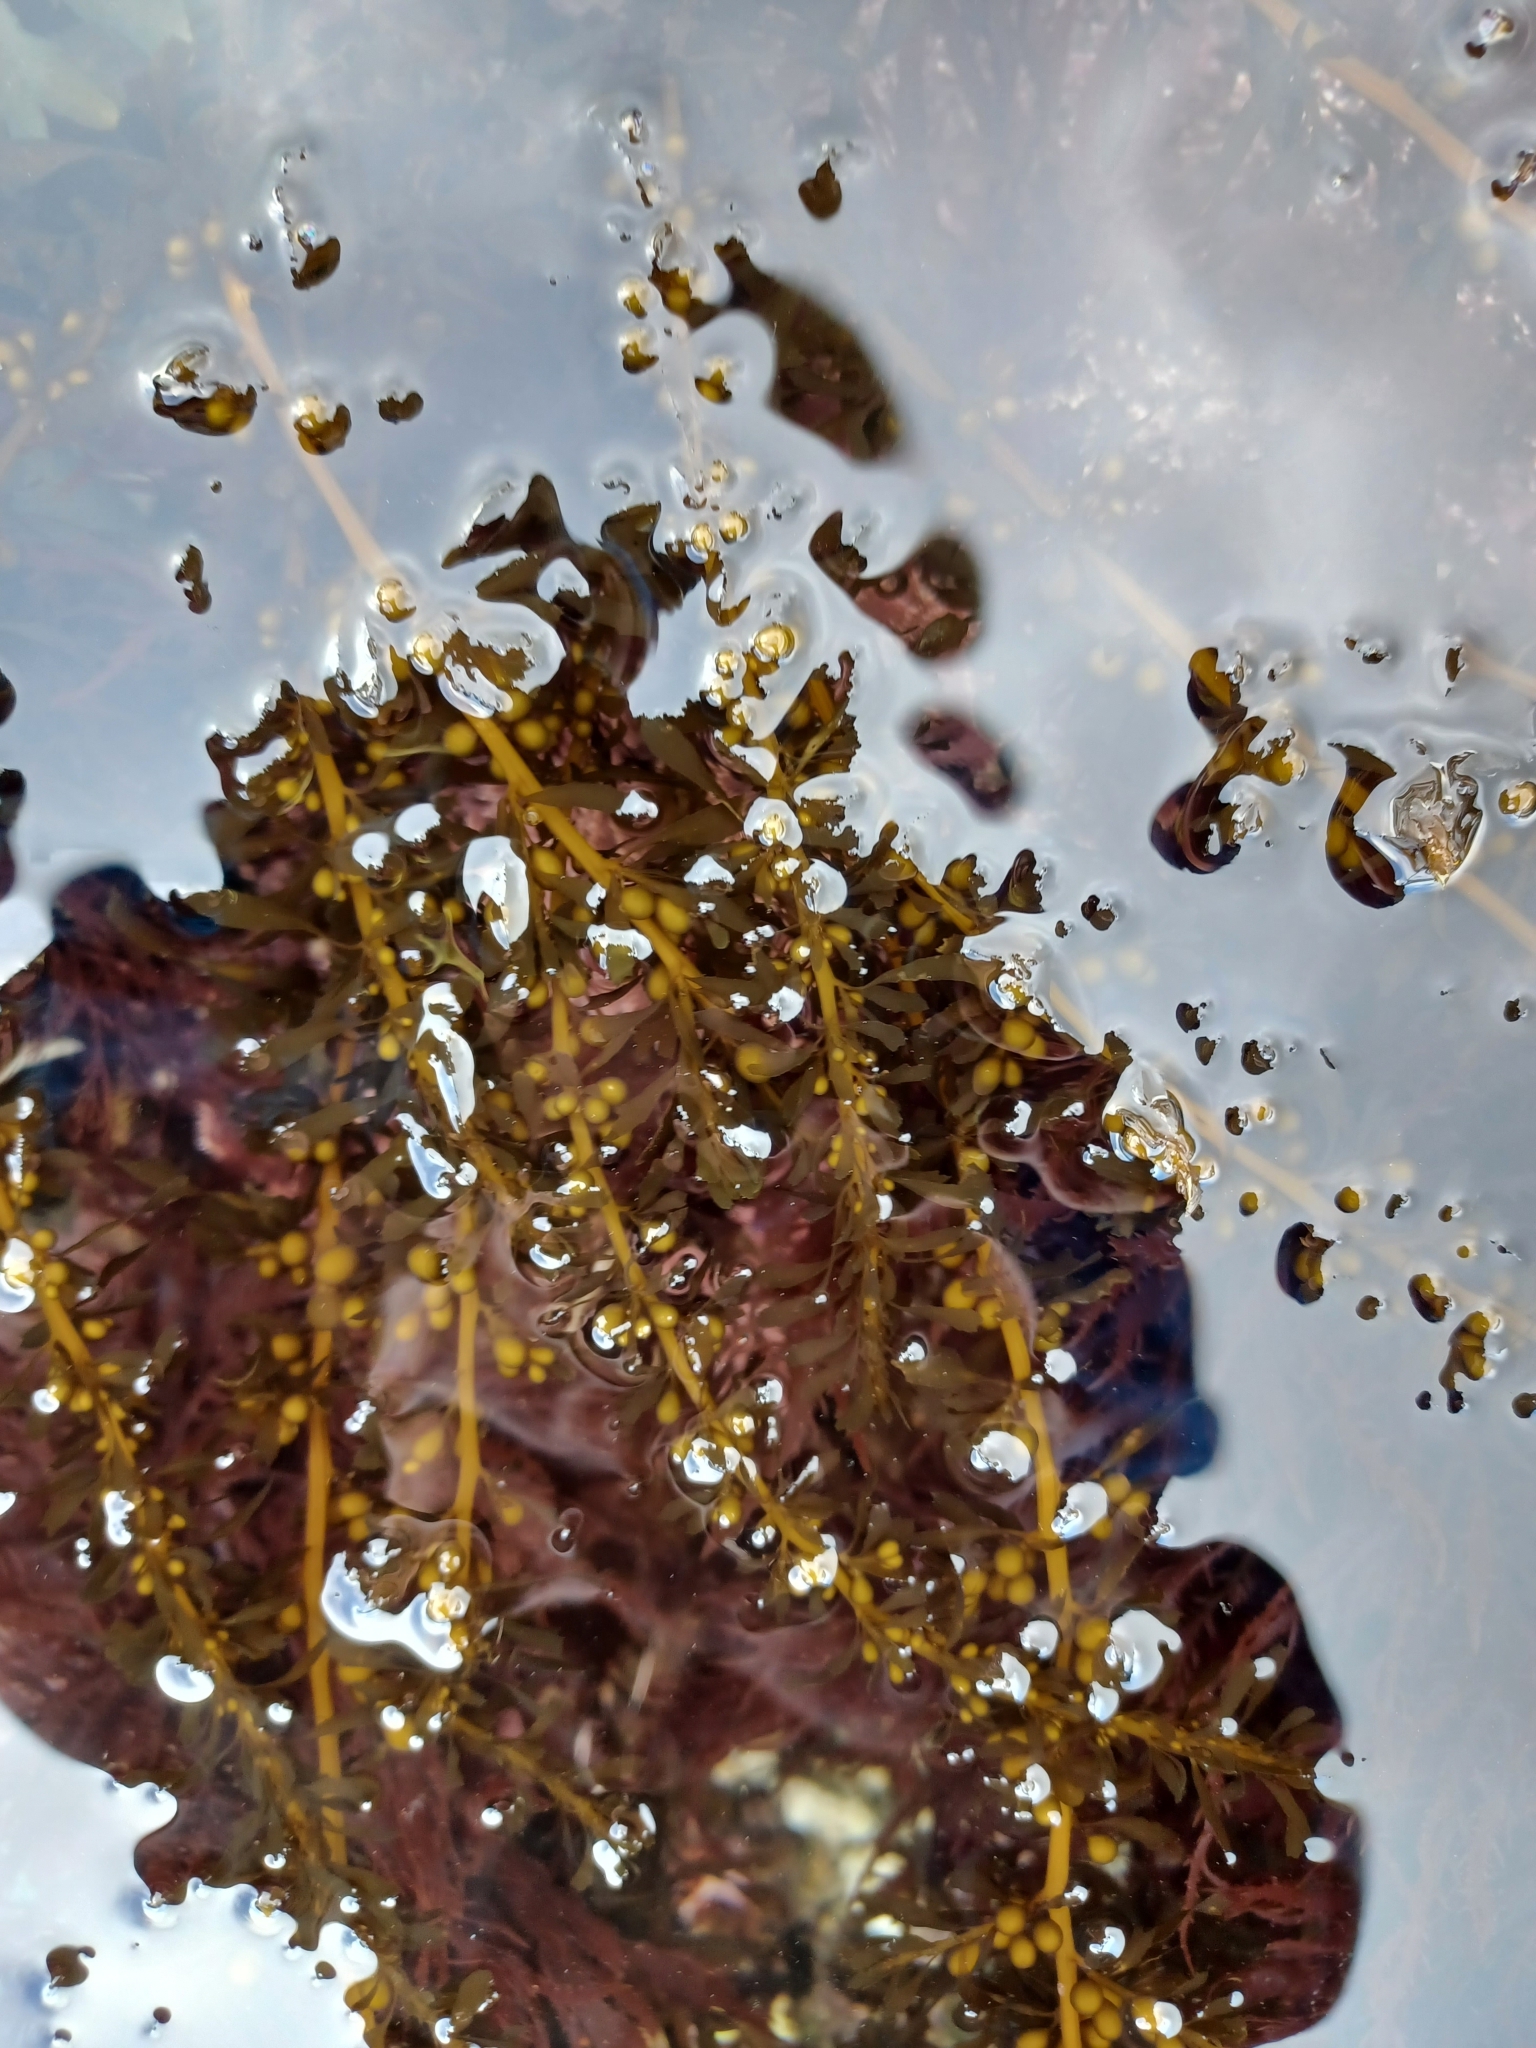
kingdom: Chromista
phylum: Ochrophyta
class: Phaeophyceae
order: Fucales
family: Sargassaceae
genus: Sargassum
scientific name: Sargassum muticum
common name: Japweed
